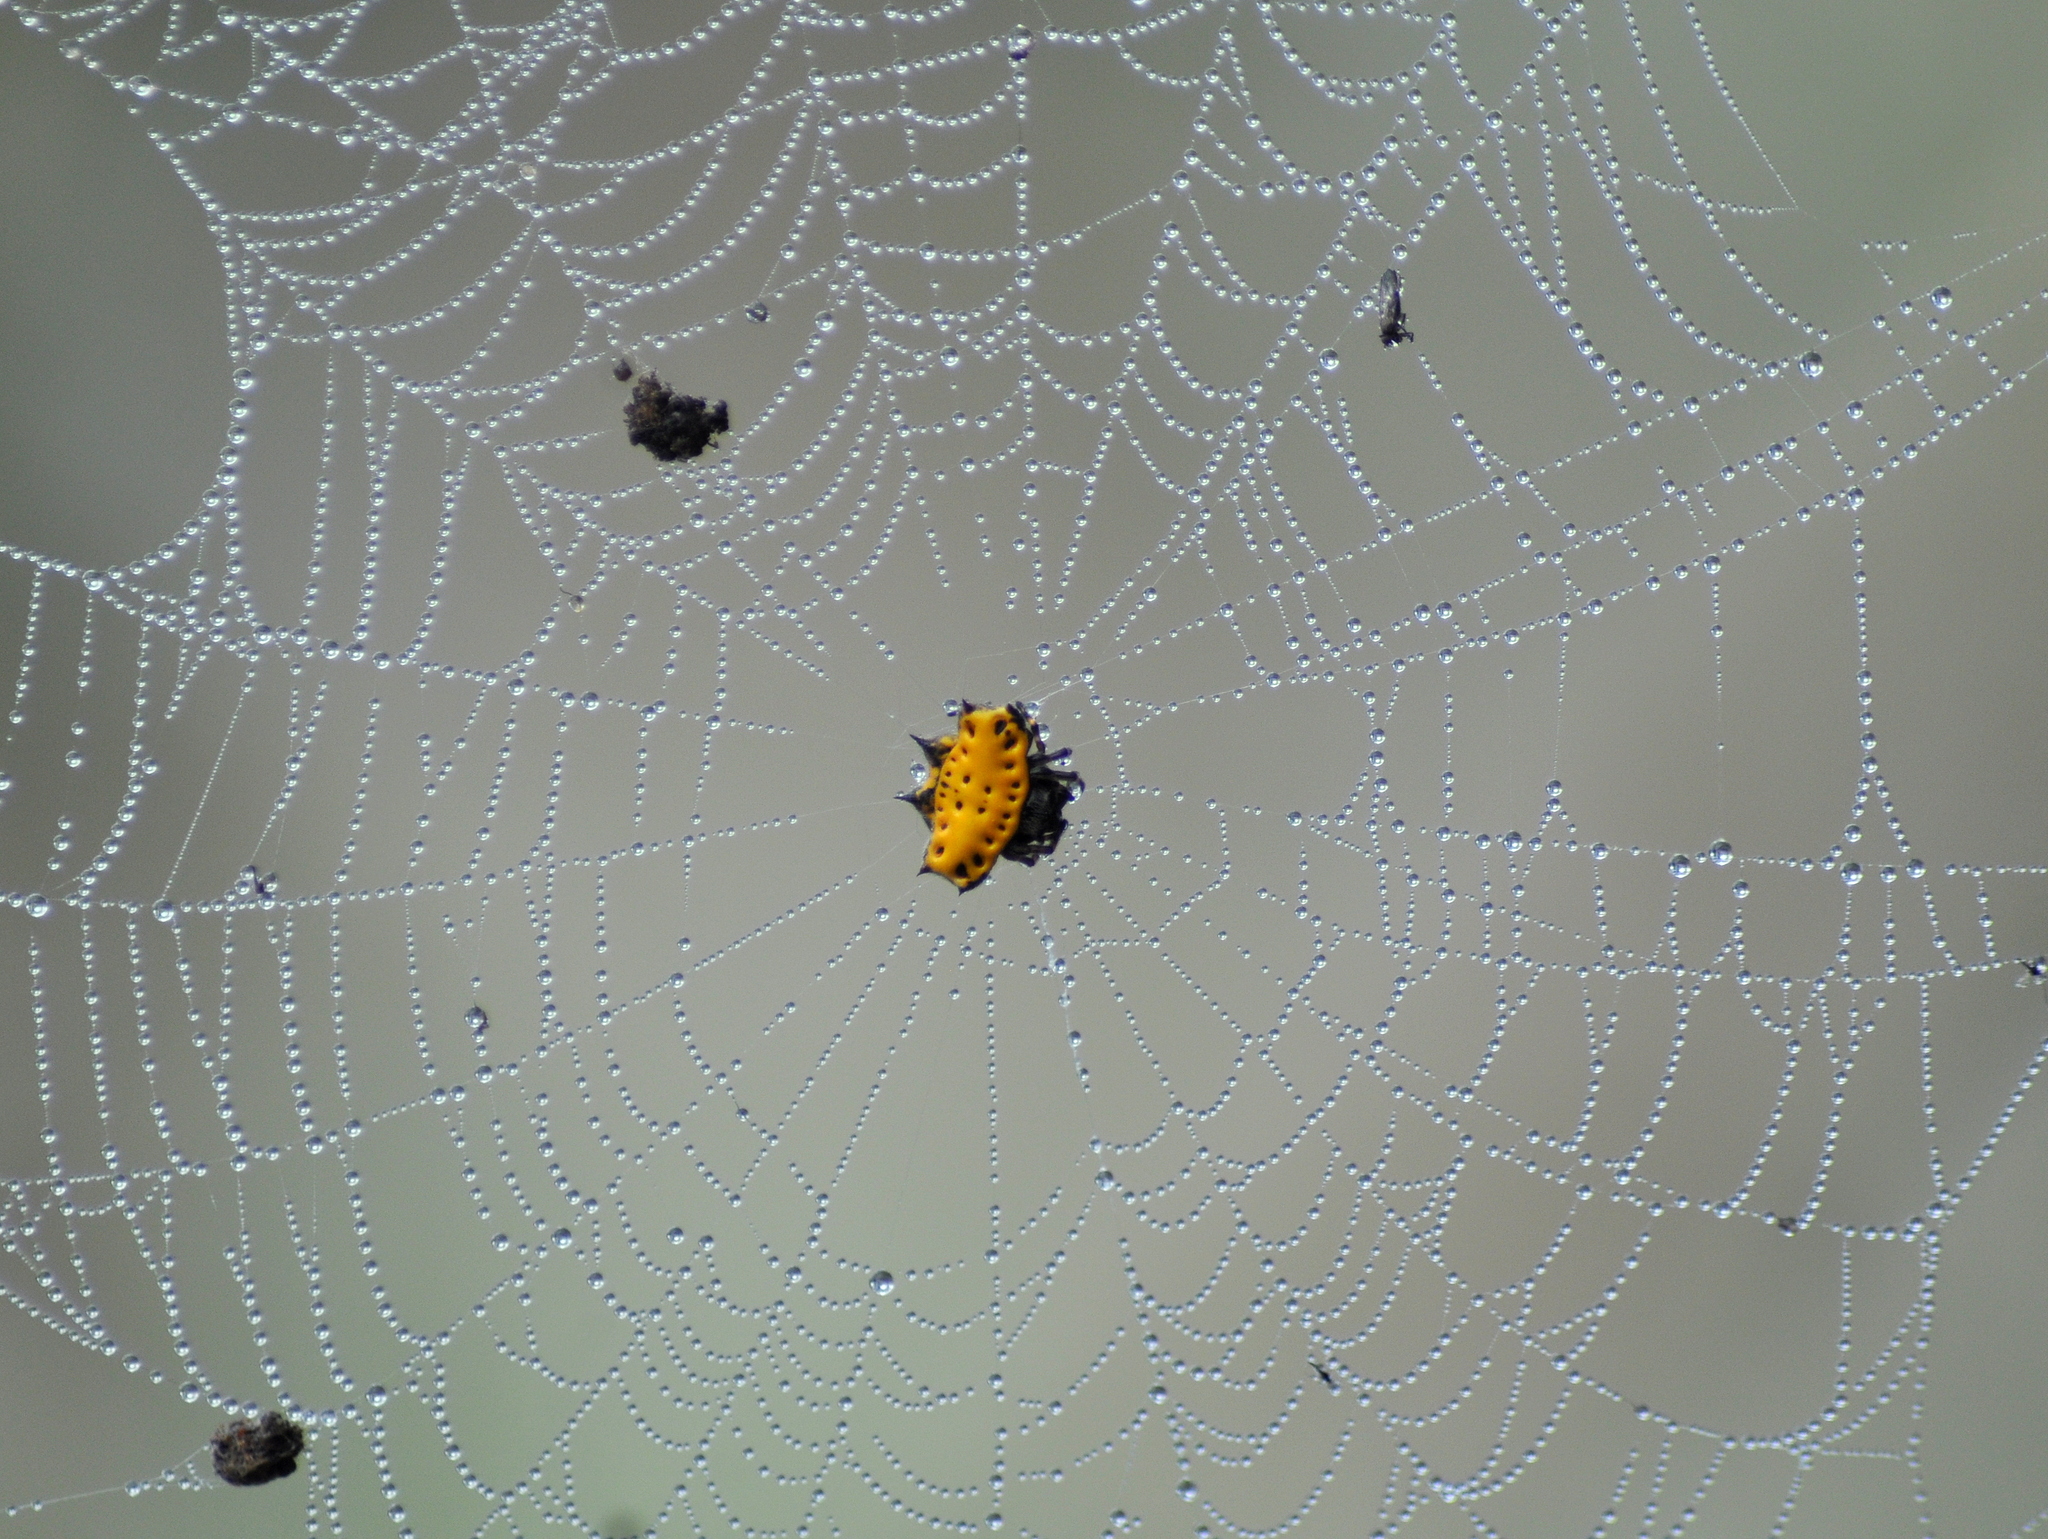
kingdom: Animalia
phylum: Arthropoda
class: Arachnida
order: Araneae
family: Araneidae
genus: Gasteracantha
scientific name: Gasteracantha cancriformis
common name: Orb weavers
